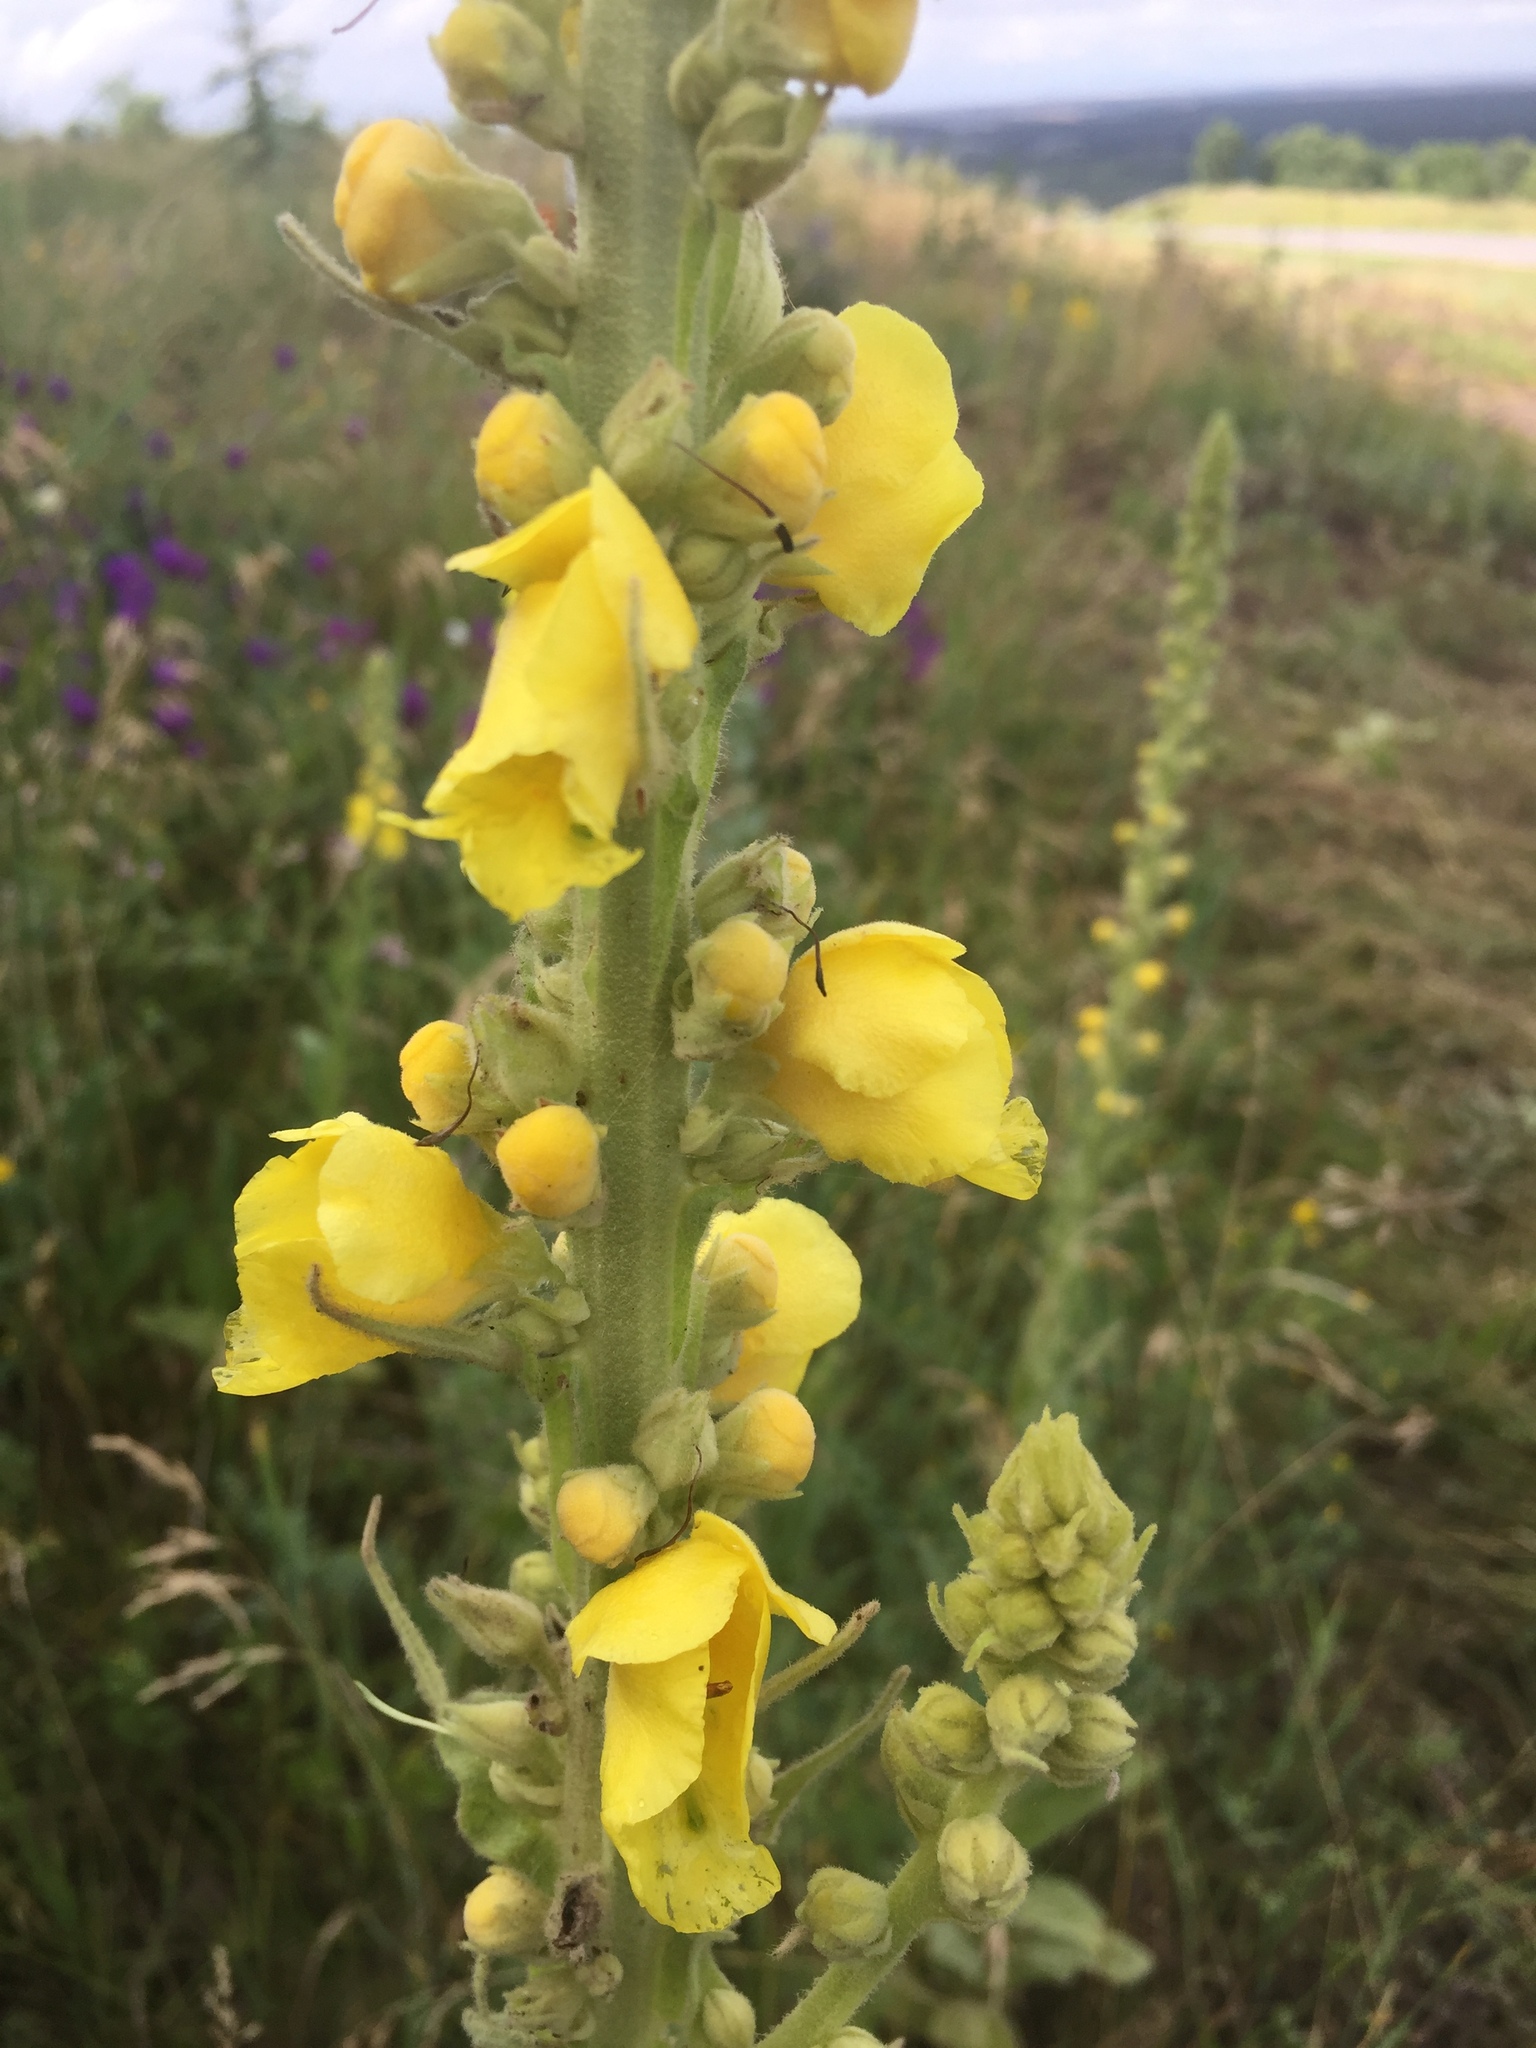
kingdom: Plantae
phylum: Tracheophyta
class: Magnoliopsida
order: Lamiales
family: Scrophulariaceae
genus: Verbascum
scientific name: Verbascum densiflorum
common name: Dense-flowered mullein
